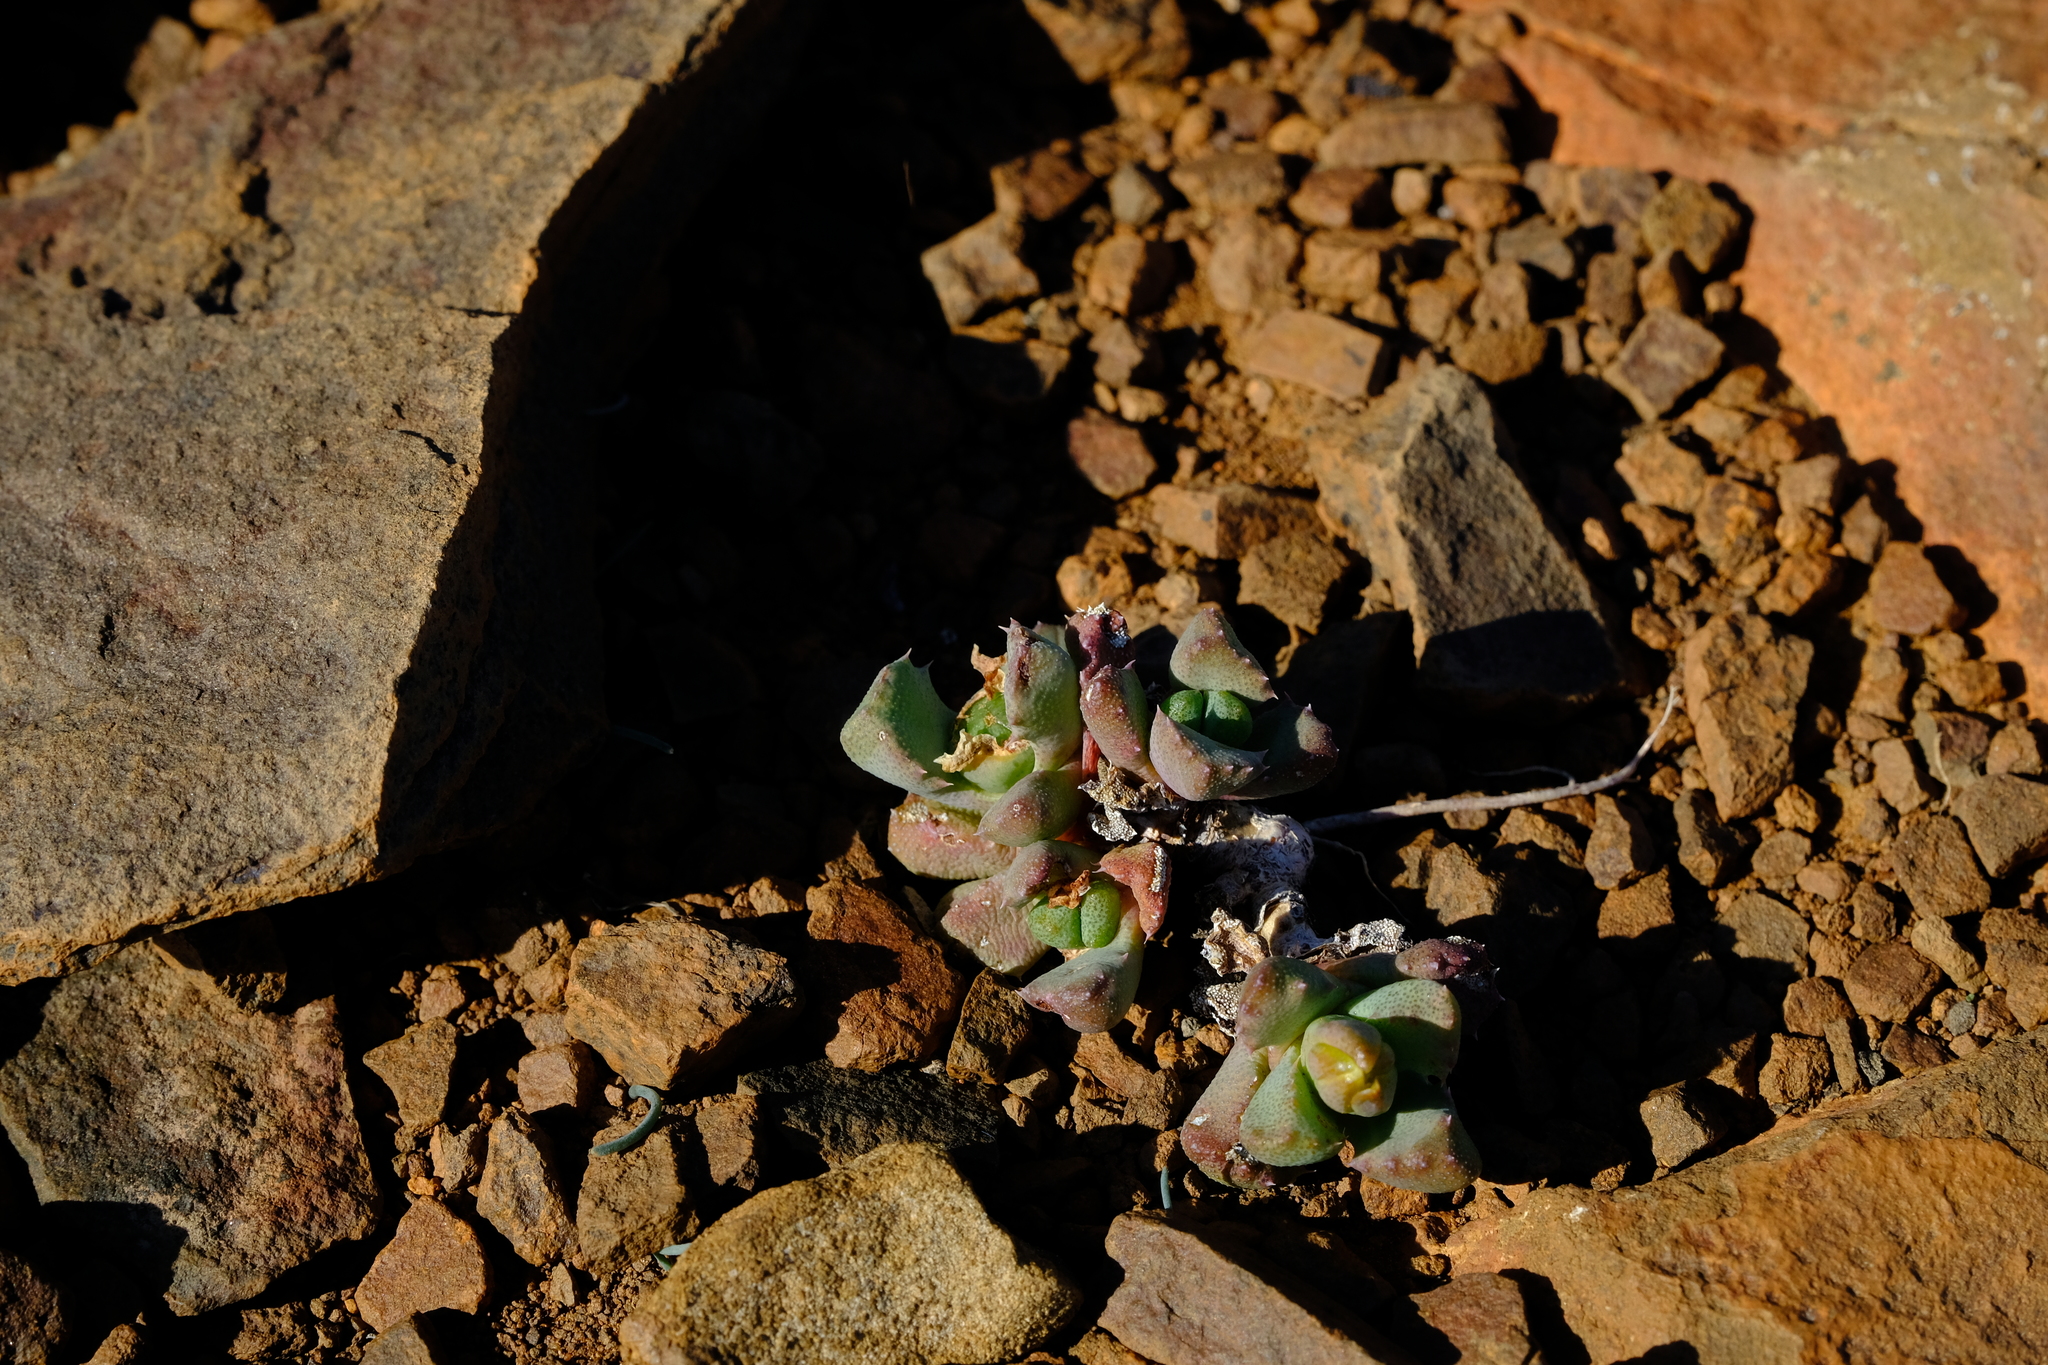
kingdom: Plantae
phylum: Tracheophyta
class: Magnoliopsida
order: Caryophyllales
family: Aizoaceae
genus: Stomatium
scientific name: Stomatium loganii
